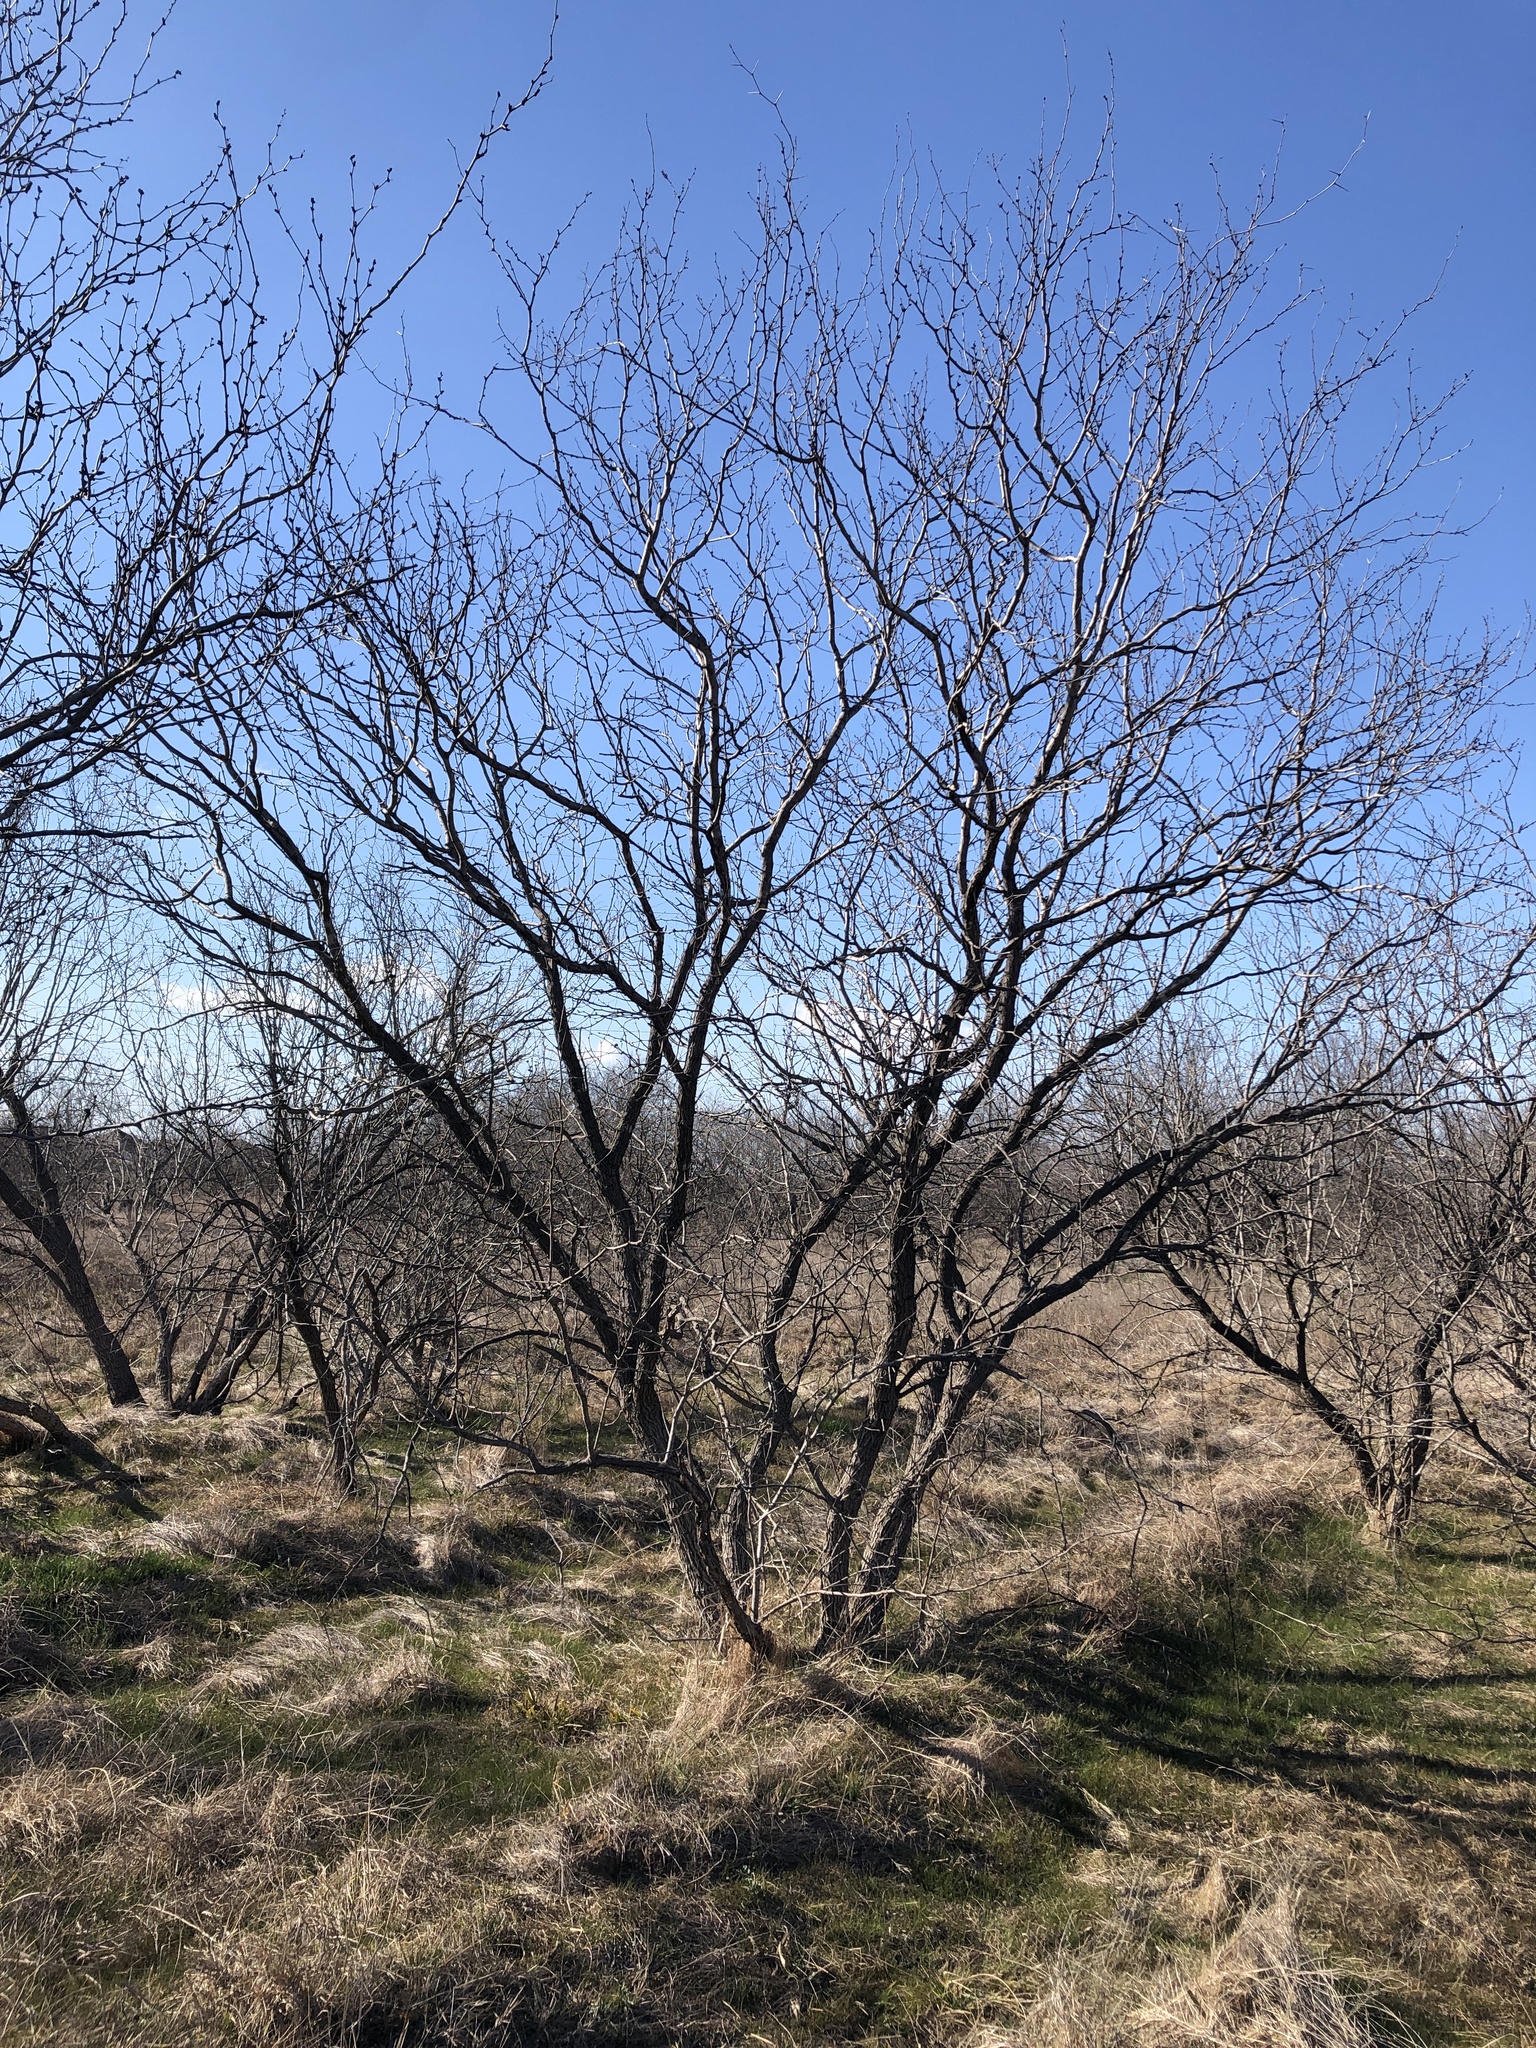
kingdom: Plantae
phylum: Tracheophyta
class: Magnoliopsida
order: Fabales
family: Fabaceae
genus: Prosopis
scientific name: Prosopis glandulosa
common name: Honey mesquite
